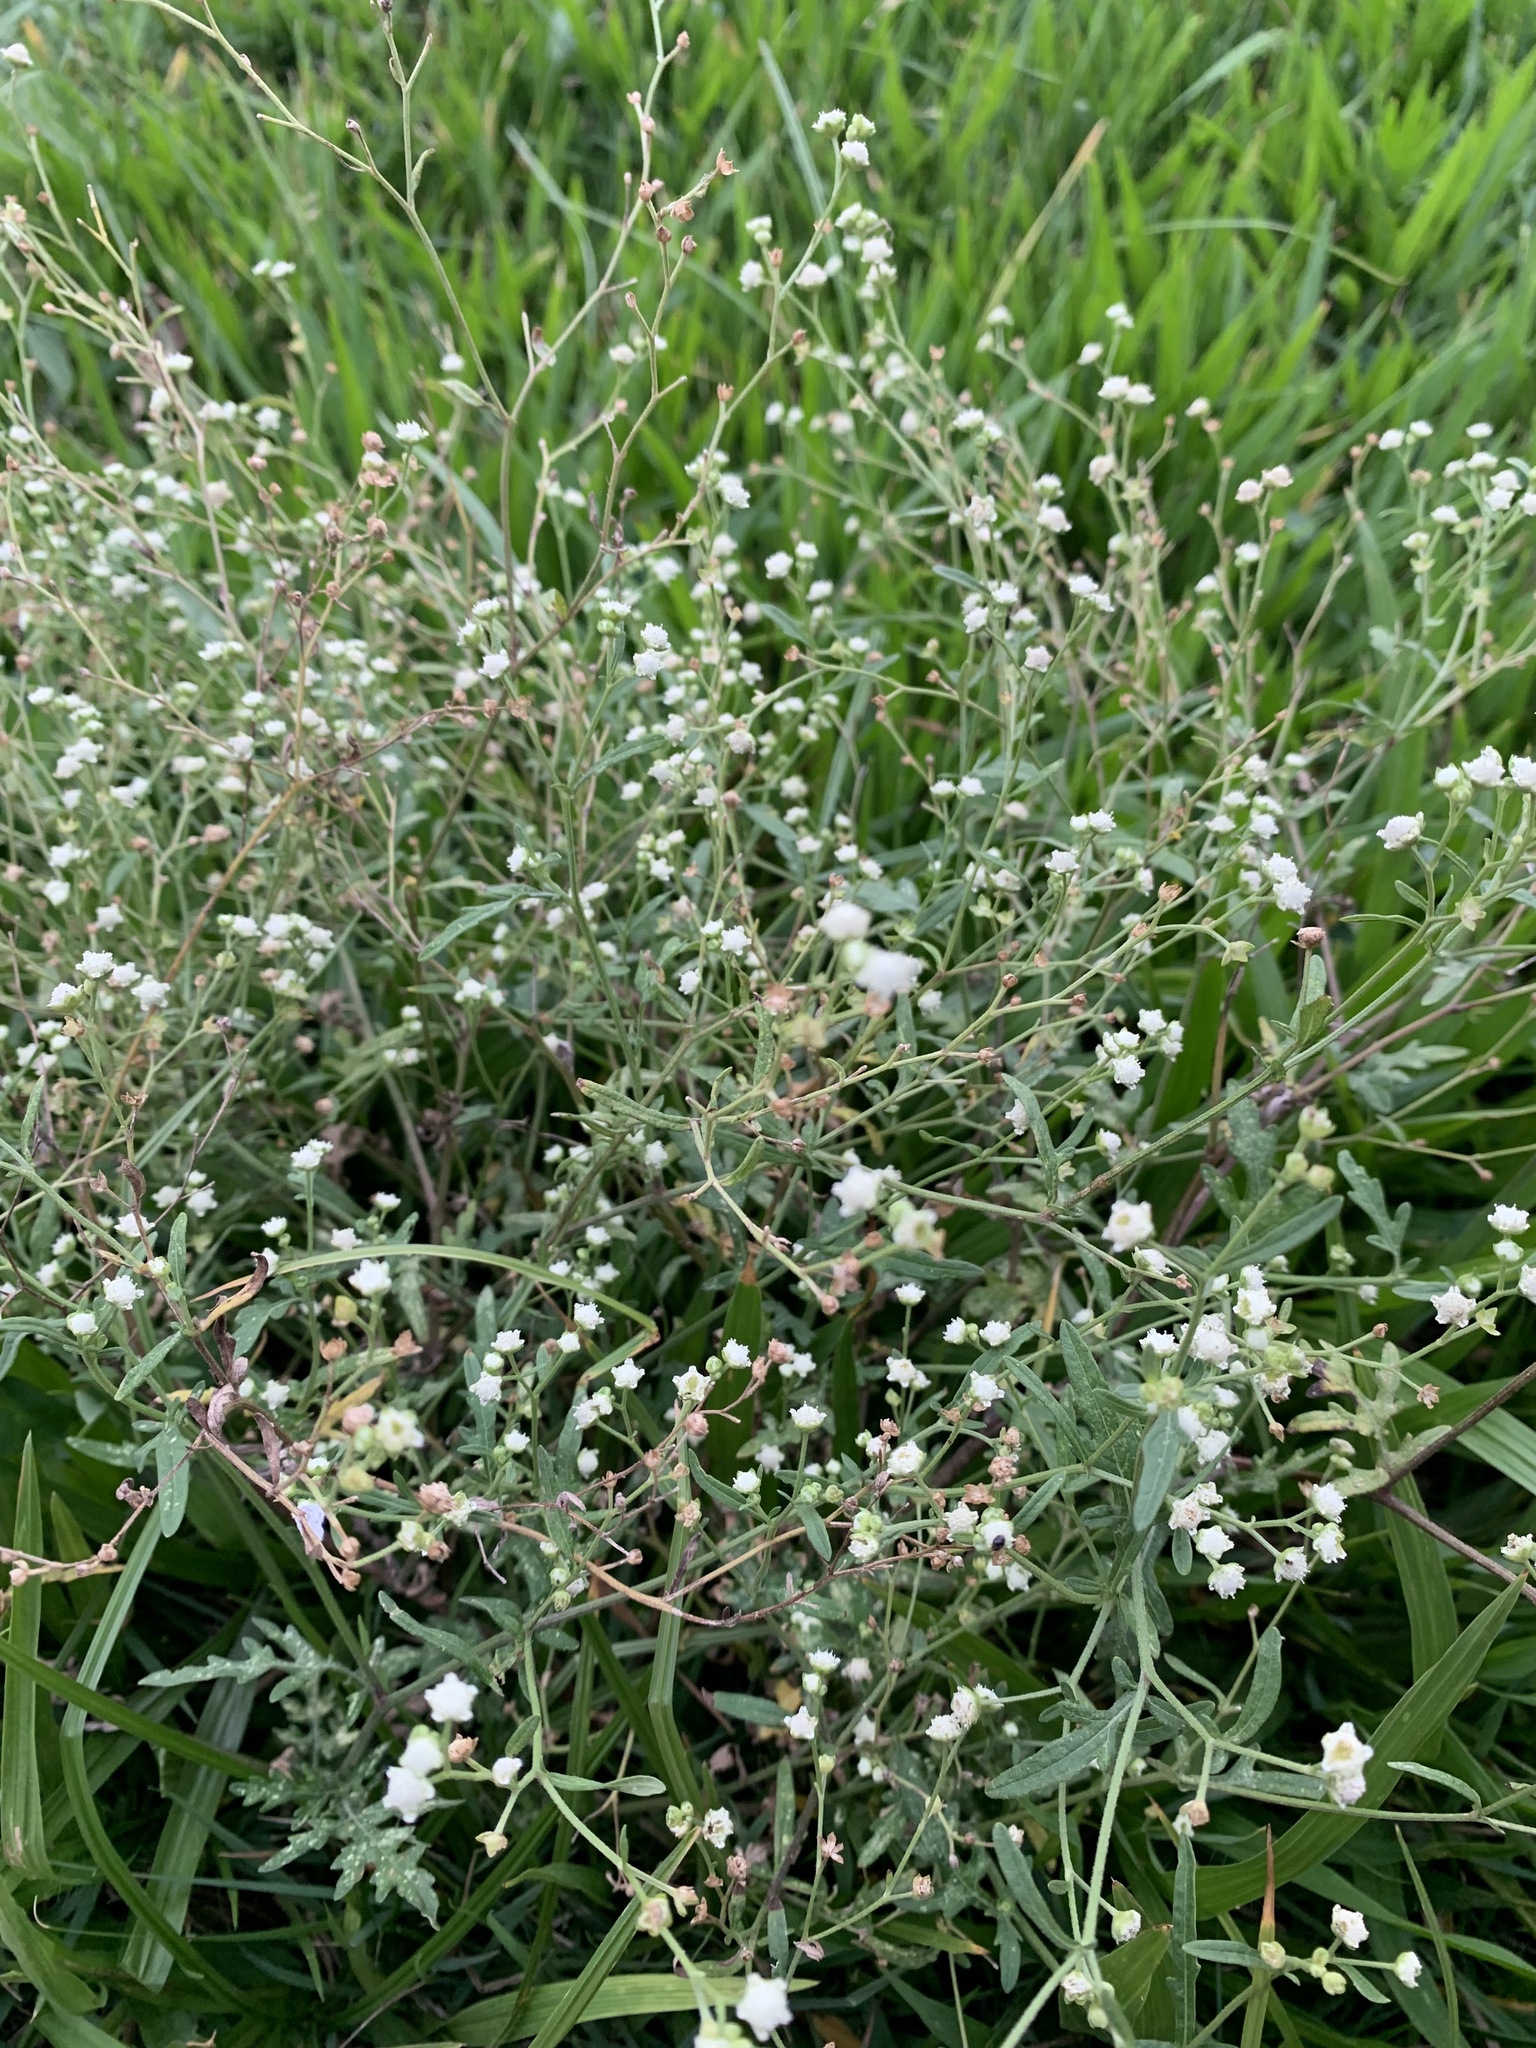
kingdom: Plantae
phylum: Tracheophyta
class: Magnoliopsida
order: Asterales
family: Asteraceae
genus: Parthenium
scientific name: Parthenium hysterophorus
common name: Santa maria feverfew
